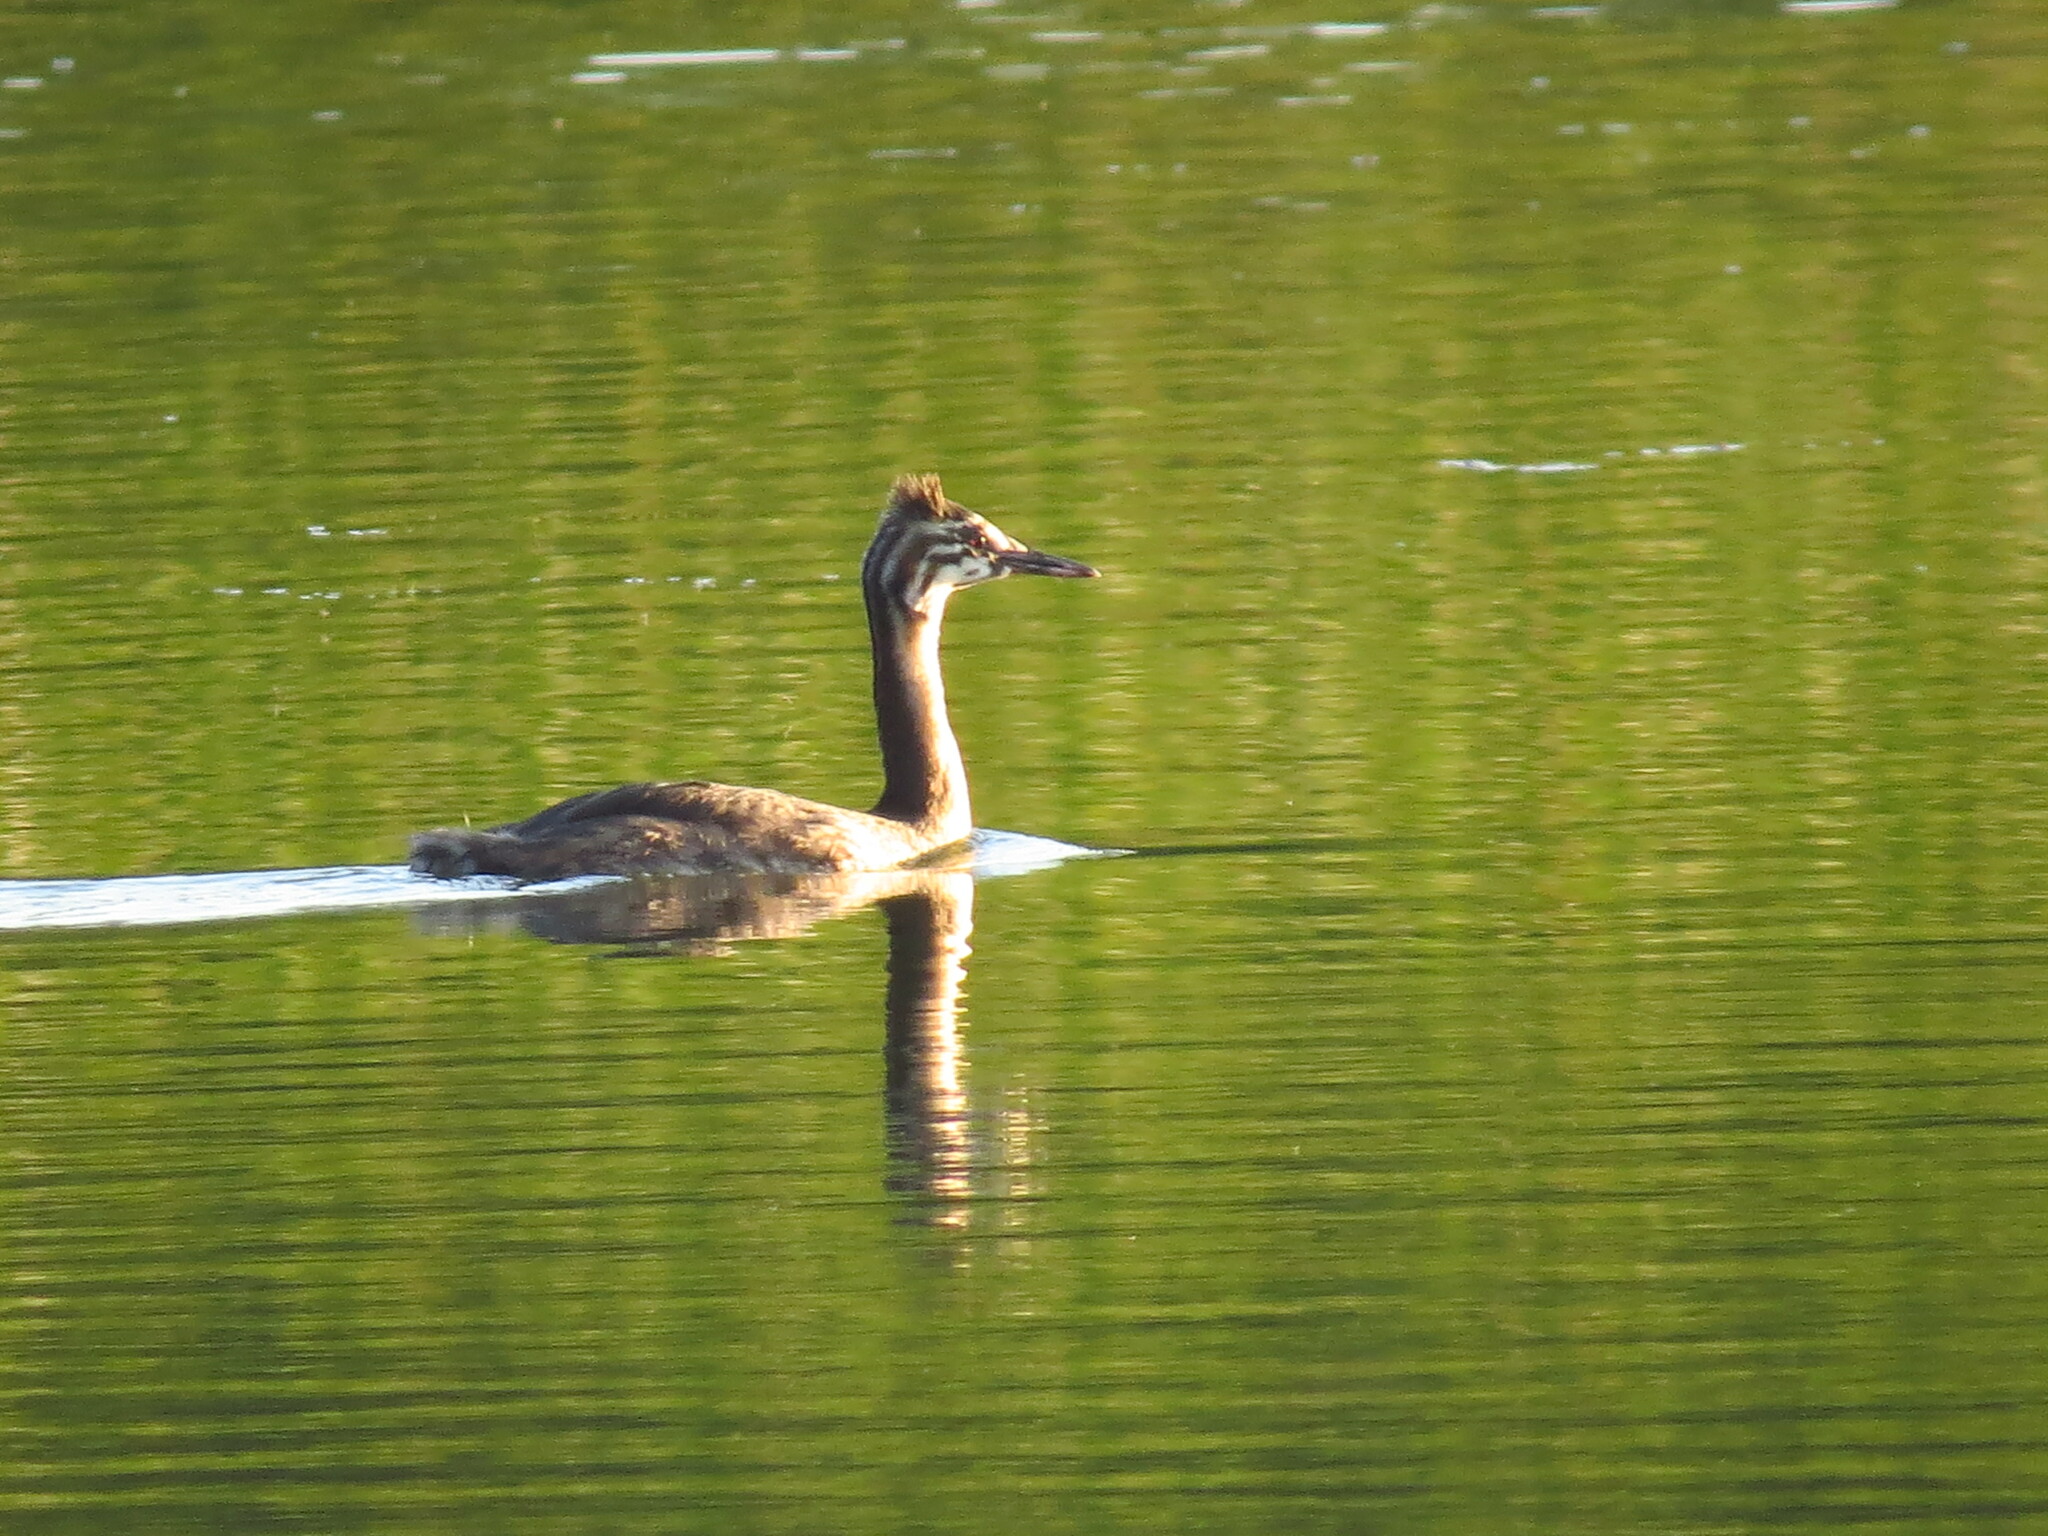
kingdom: Animalia
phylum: Chordata
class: Aves
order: Podicipediformes
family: Podicipedidae
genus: Podiceps
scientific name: Podiceps cristatus
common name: Great crested grebe
